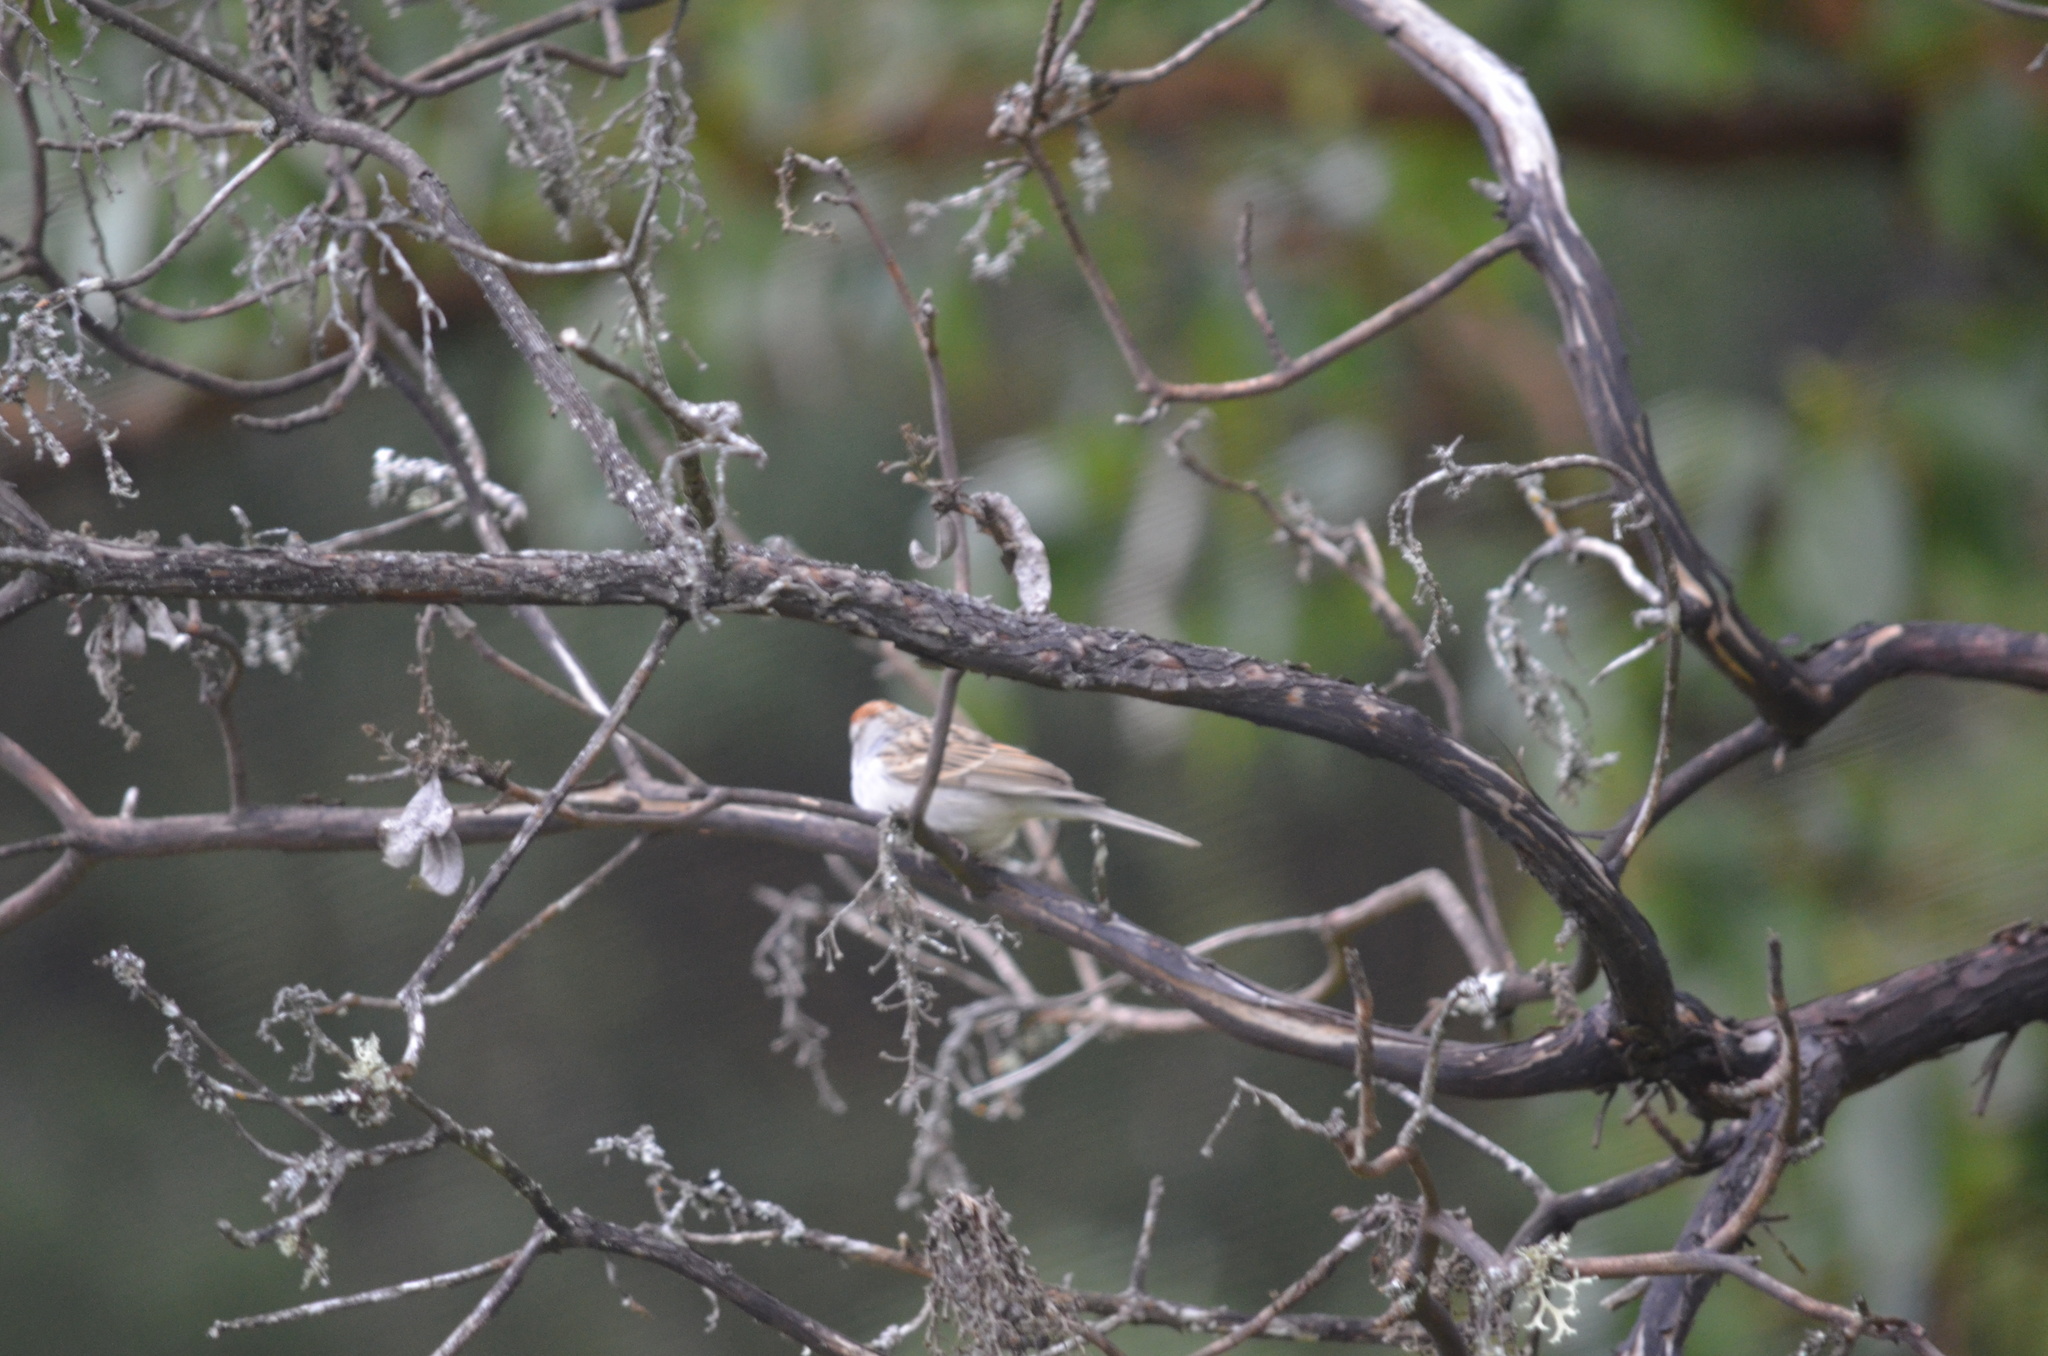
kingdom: Animalia
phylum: Chordata
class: Aves
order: Passeriformes
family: Passerellidae
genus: Spizella
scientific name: Spizella passerina
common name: Chipping sparrow
